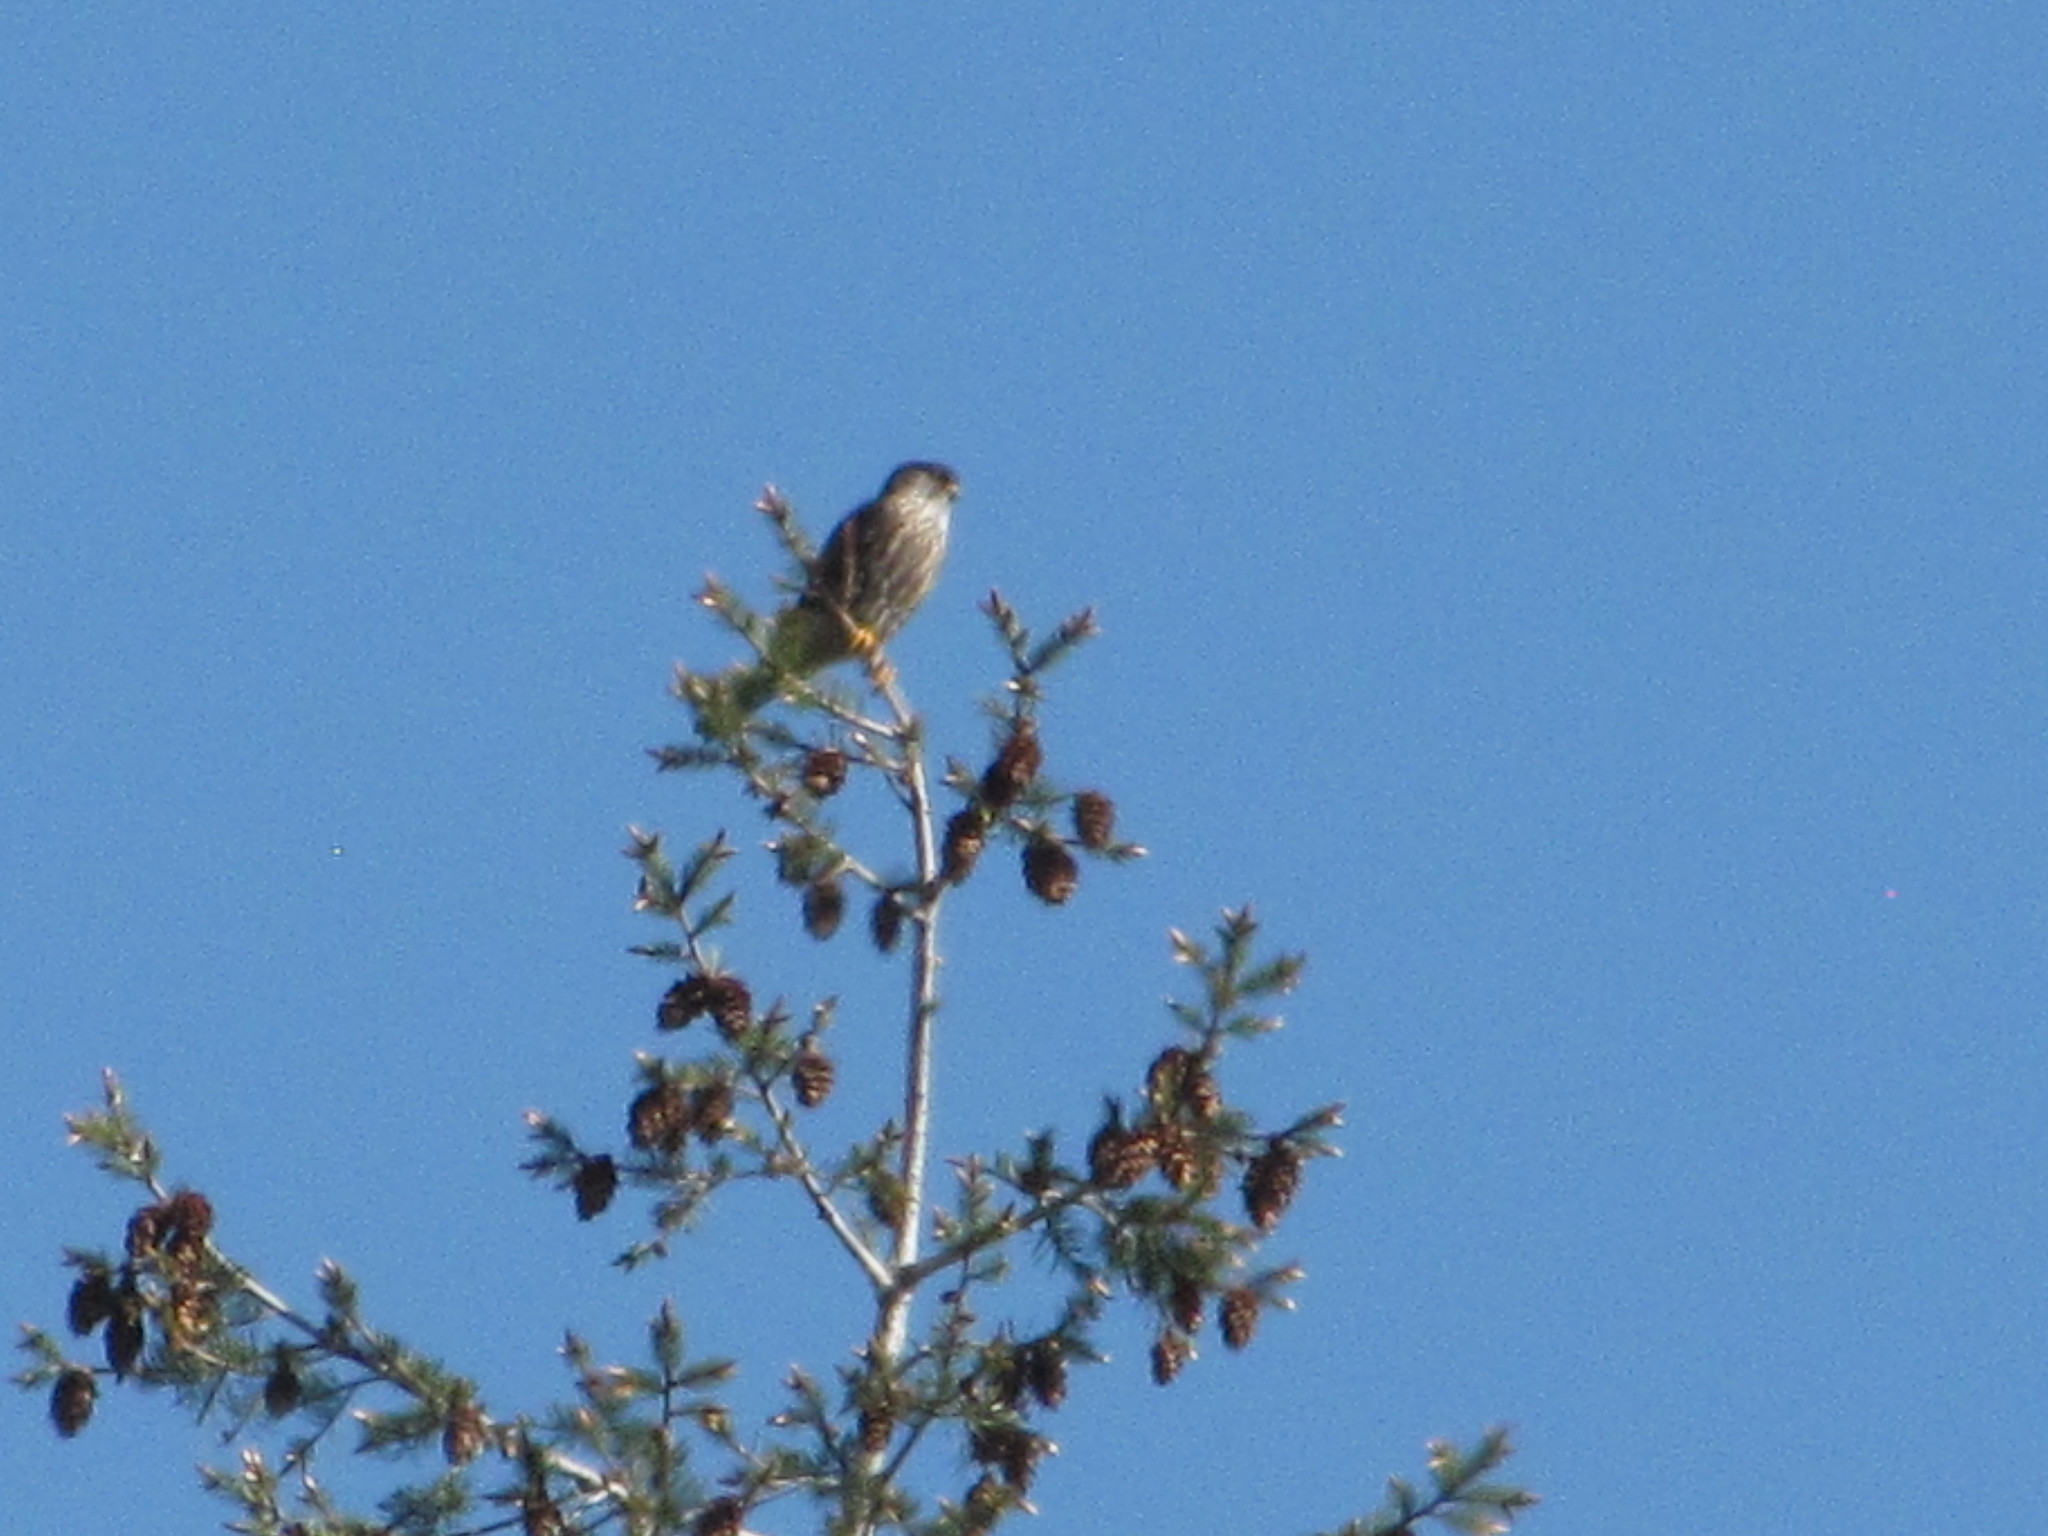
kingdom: Animalia
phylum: Chordata
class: Aves
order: Falconiformes
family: Falconidae
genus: Falco
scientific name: Falco columbarius
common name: Merlin
